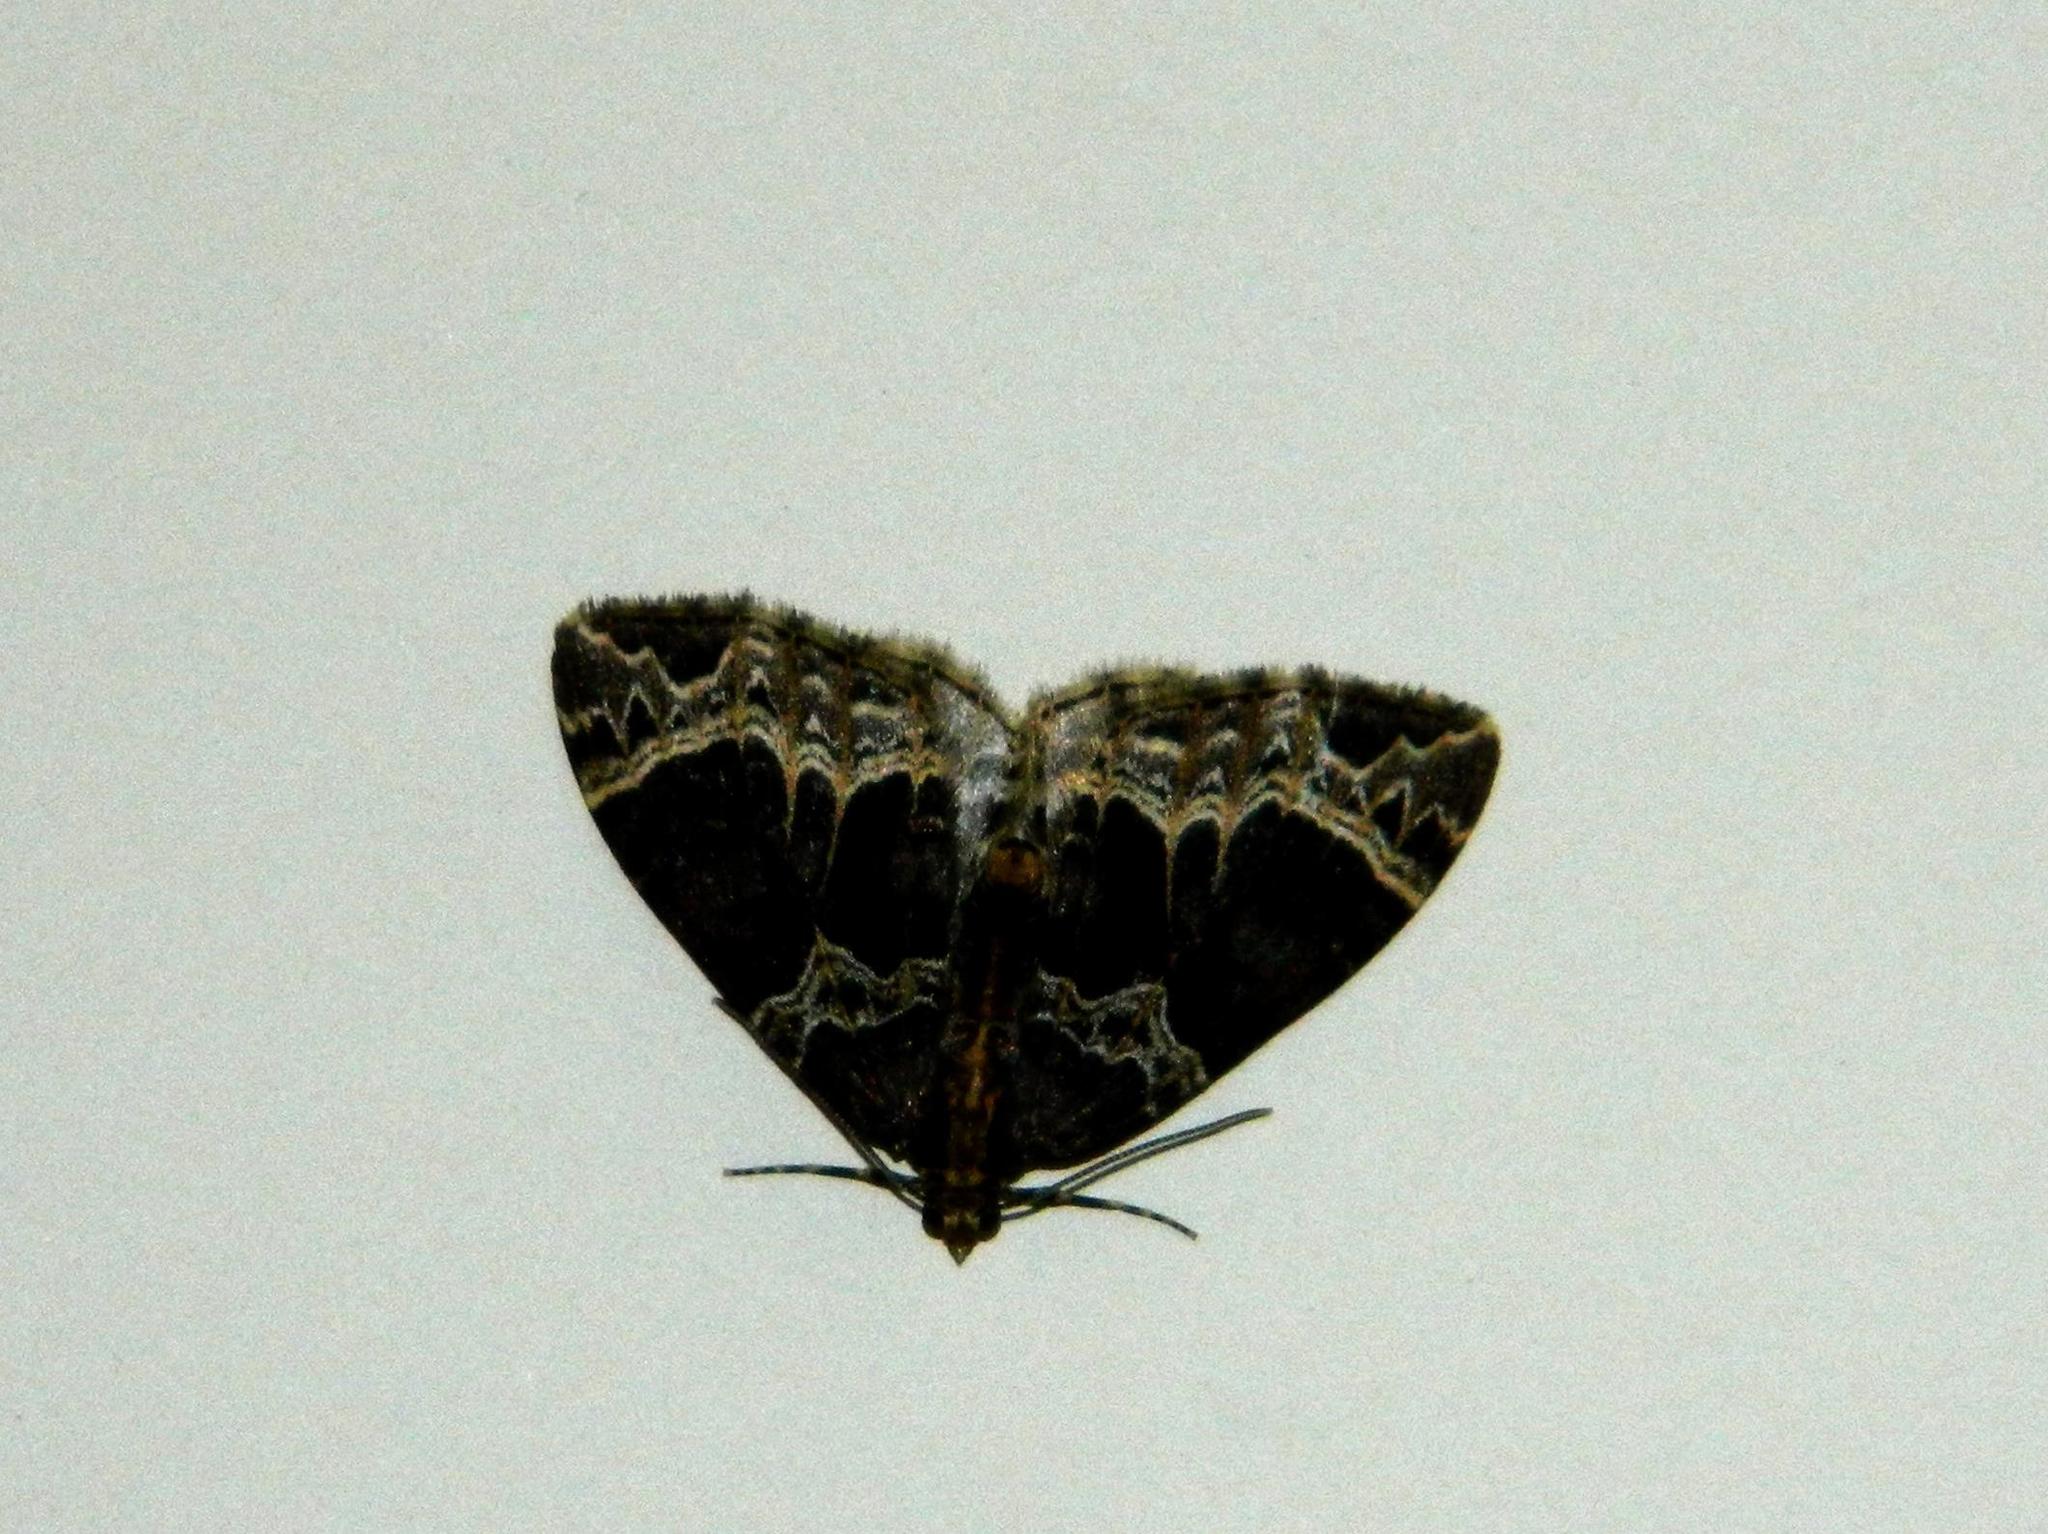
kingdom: Animalia
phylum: Arthropoda
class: Insecta
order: Lepidoptera
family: Geometridae
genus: Ecliptopera
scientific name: Ecliptopera silaceata
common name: Small phoenix
